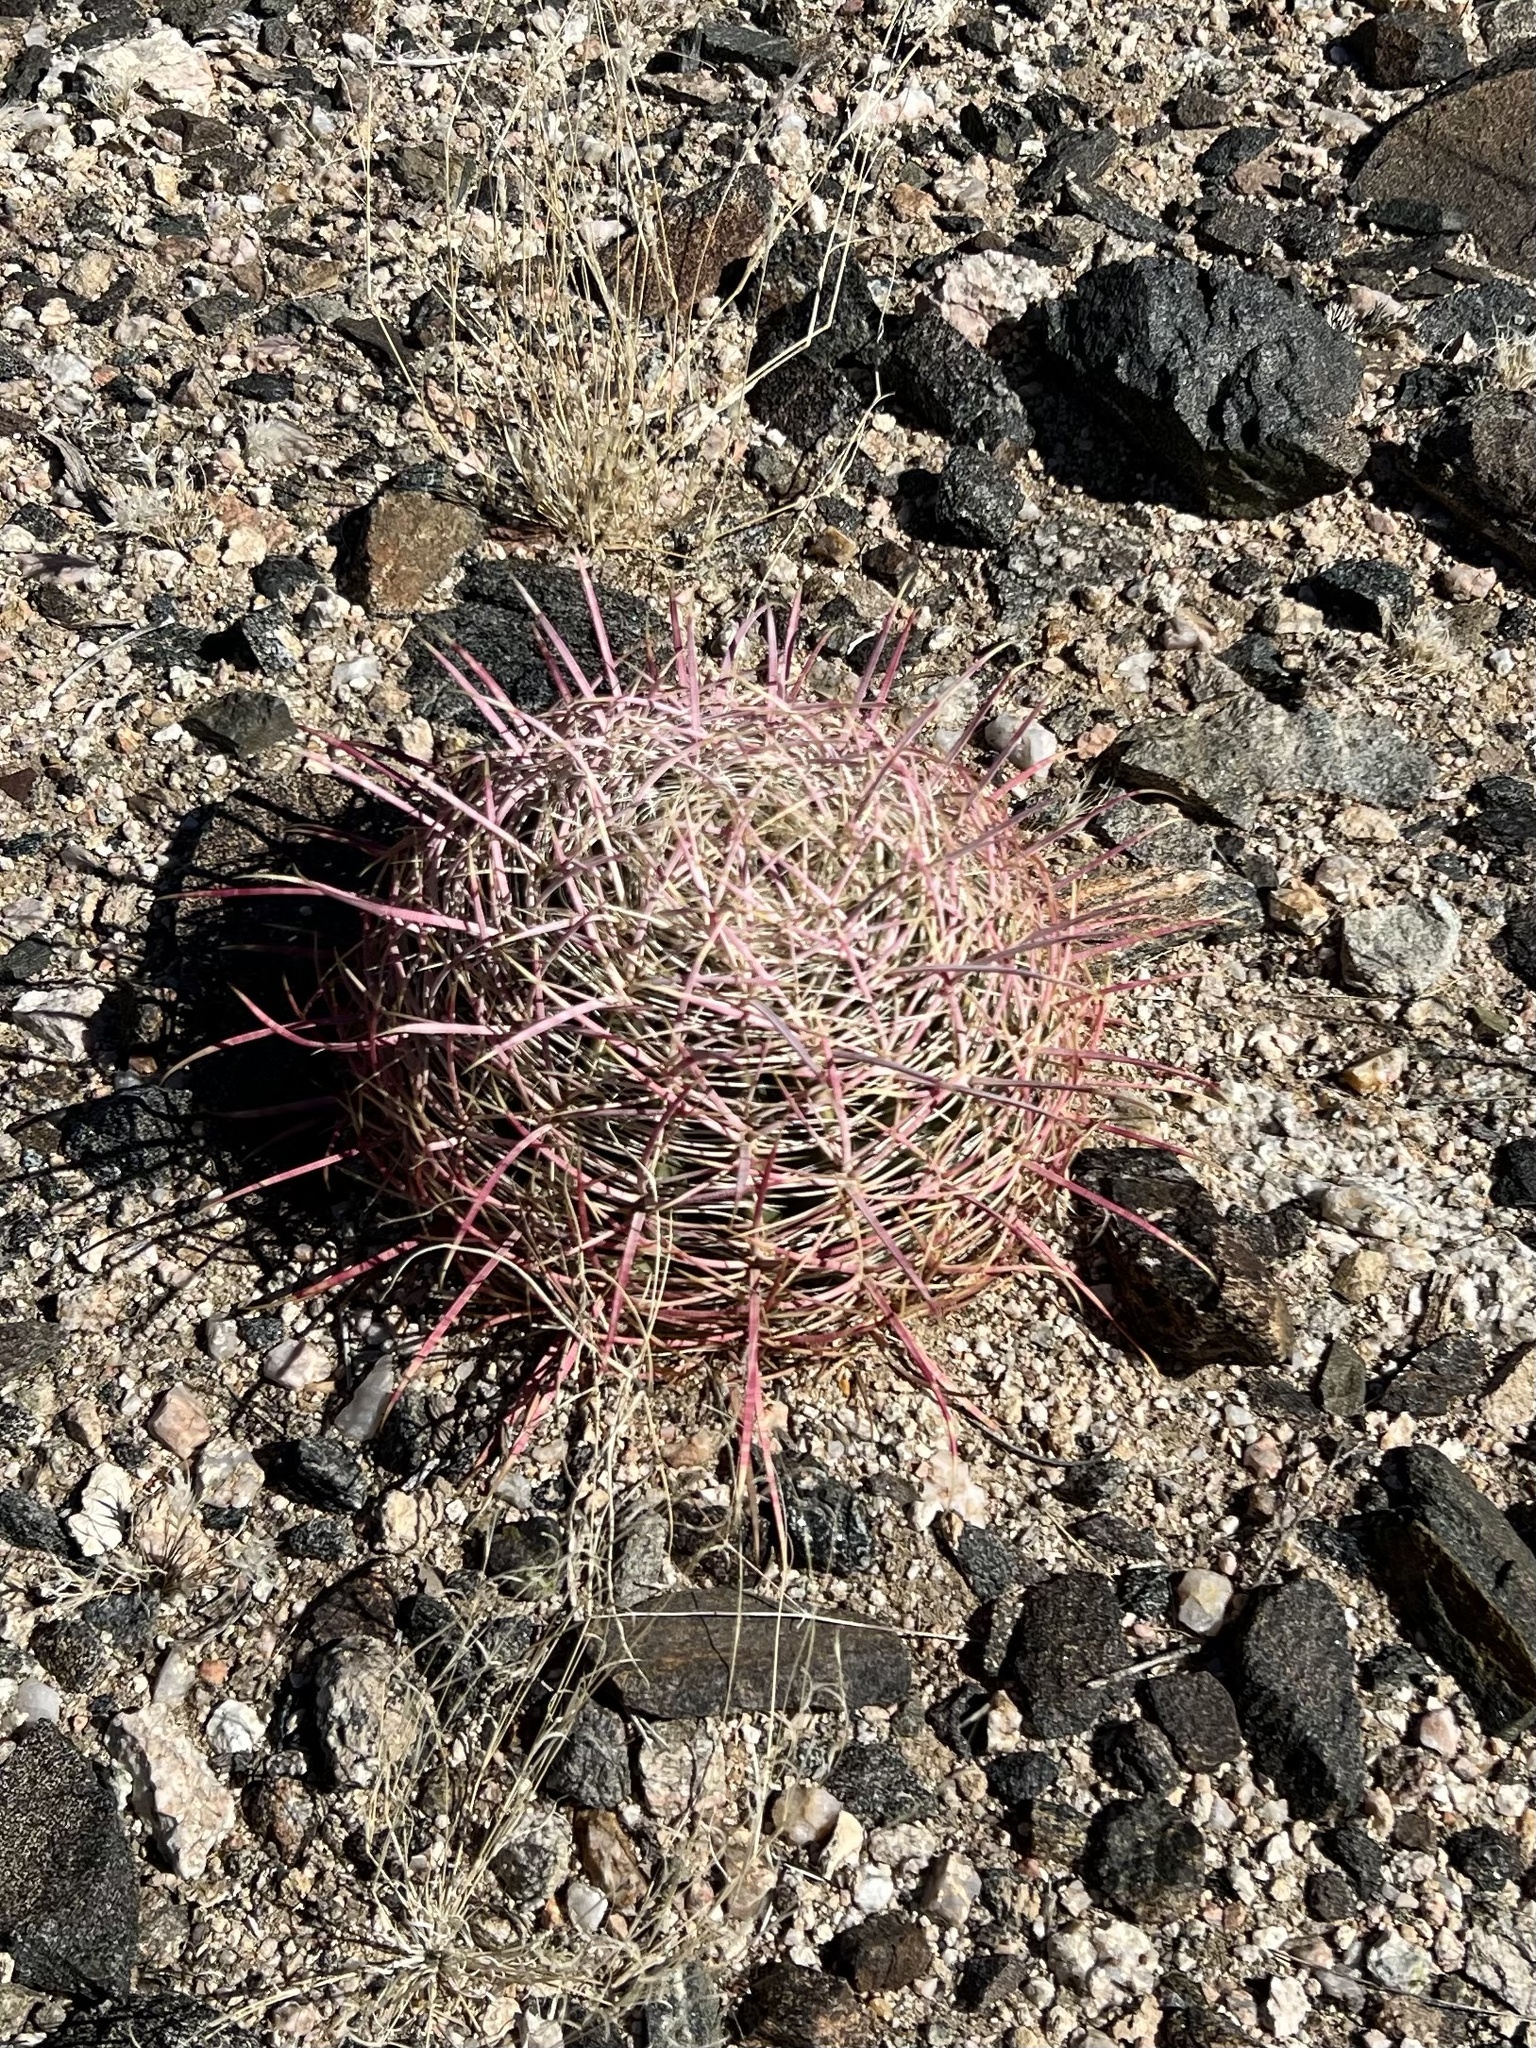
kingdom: Plantae
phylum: Tracheophyta
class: Magnoliopsida
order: Caryophyllales
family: Cactaceae
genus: Ferocactus
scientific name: Ferocactus cylindraceus
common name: California barrel cactus
